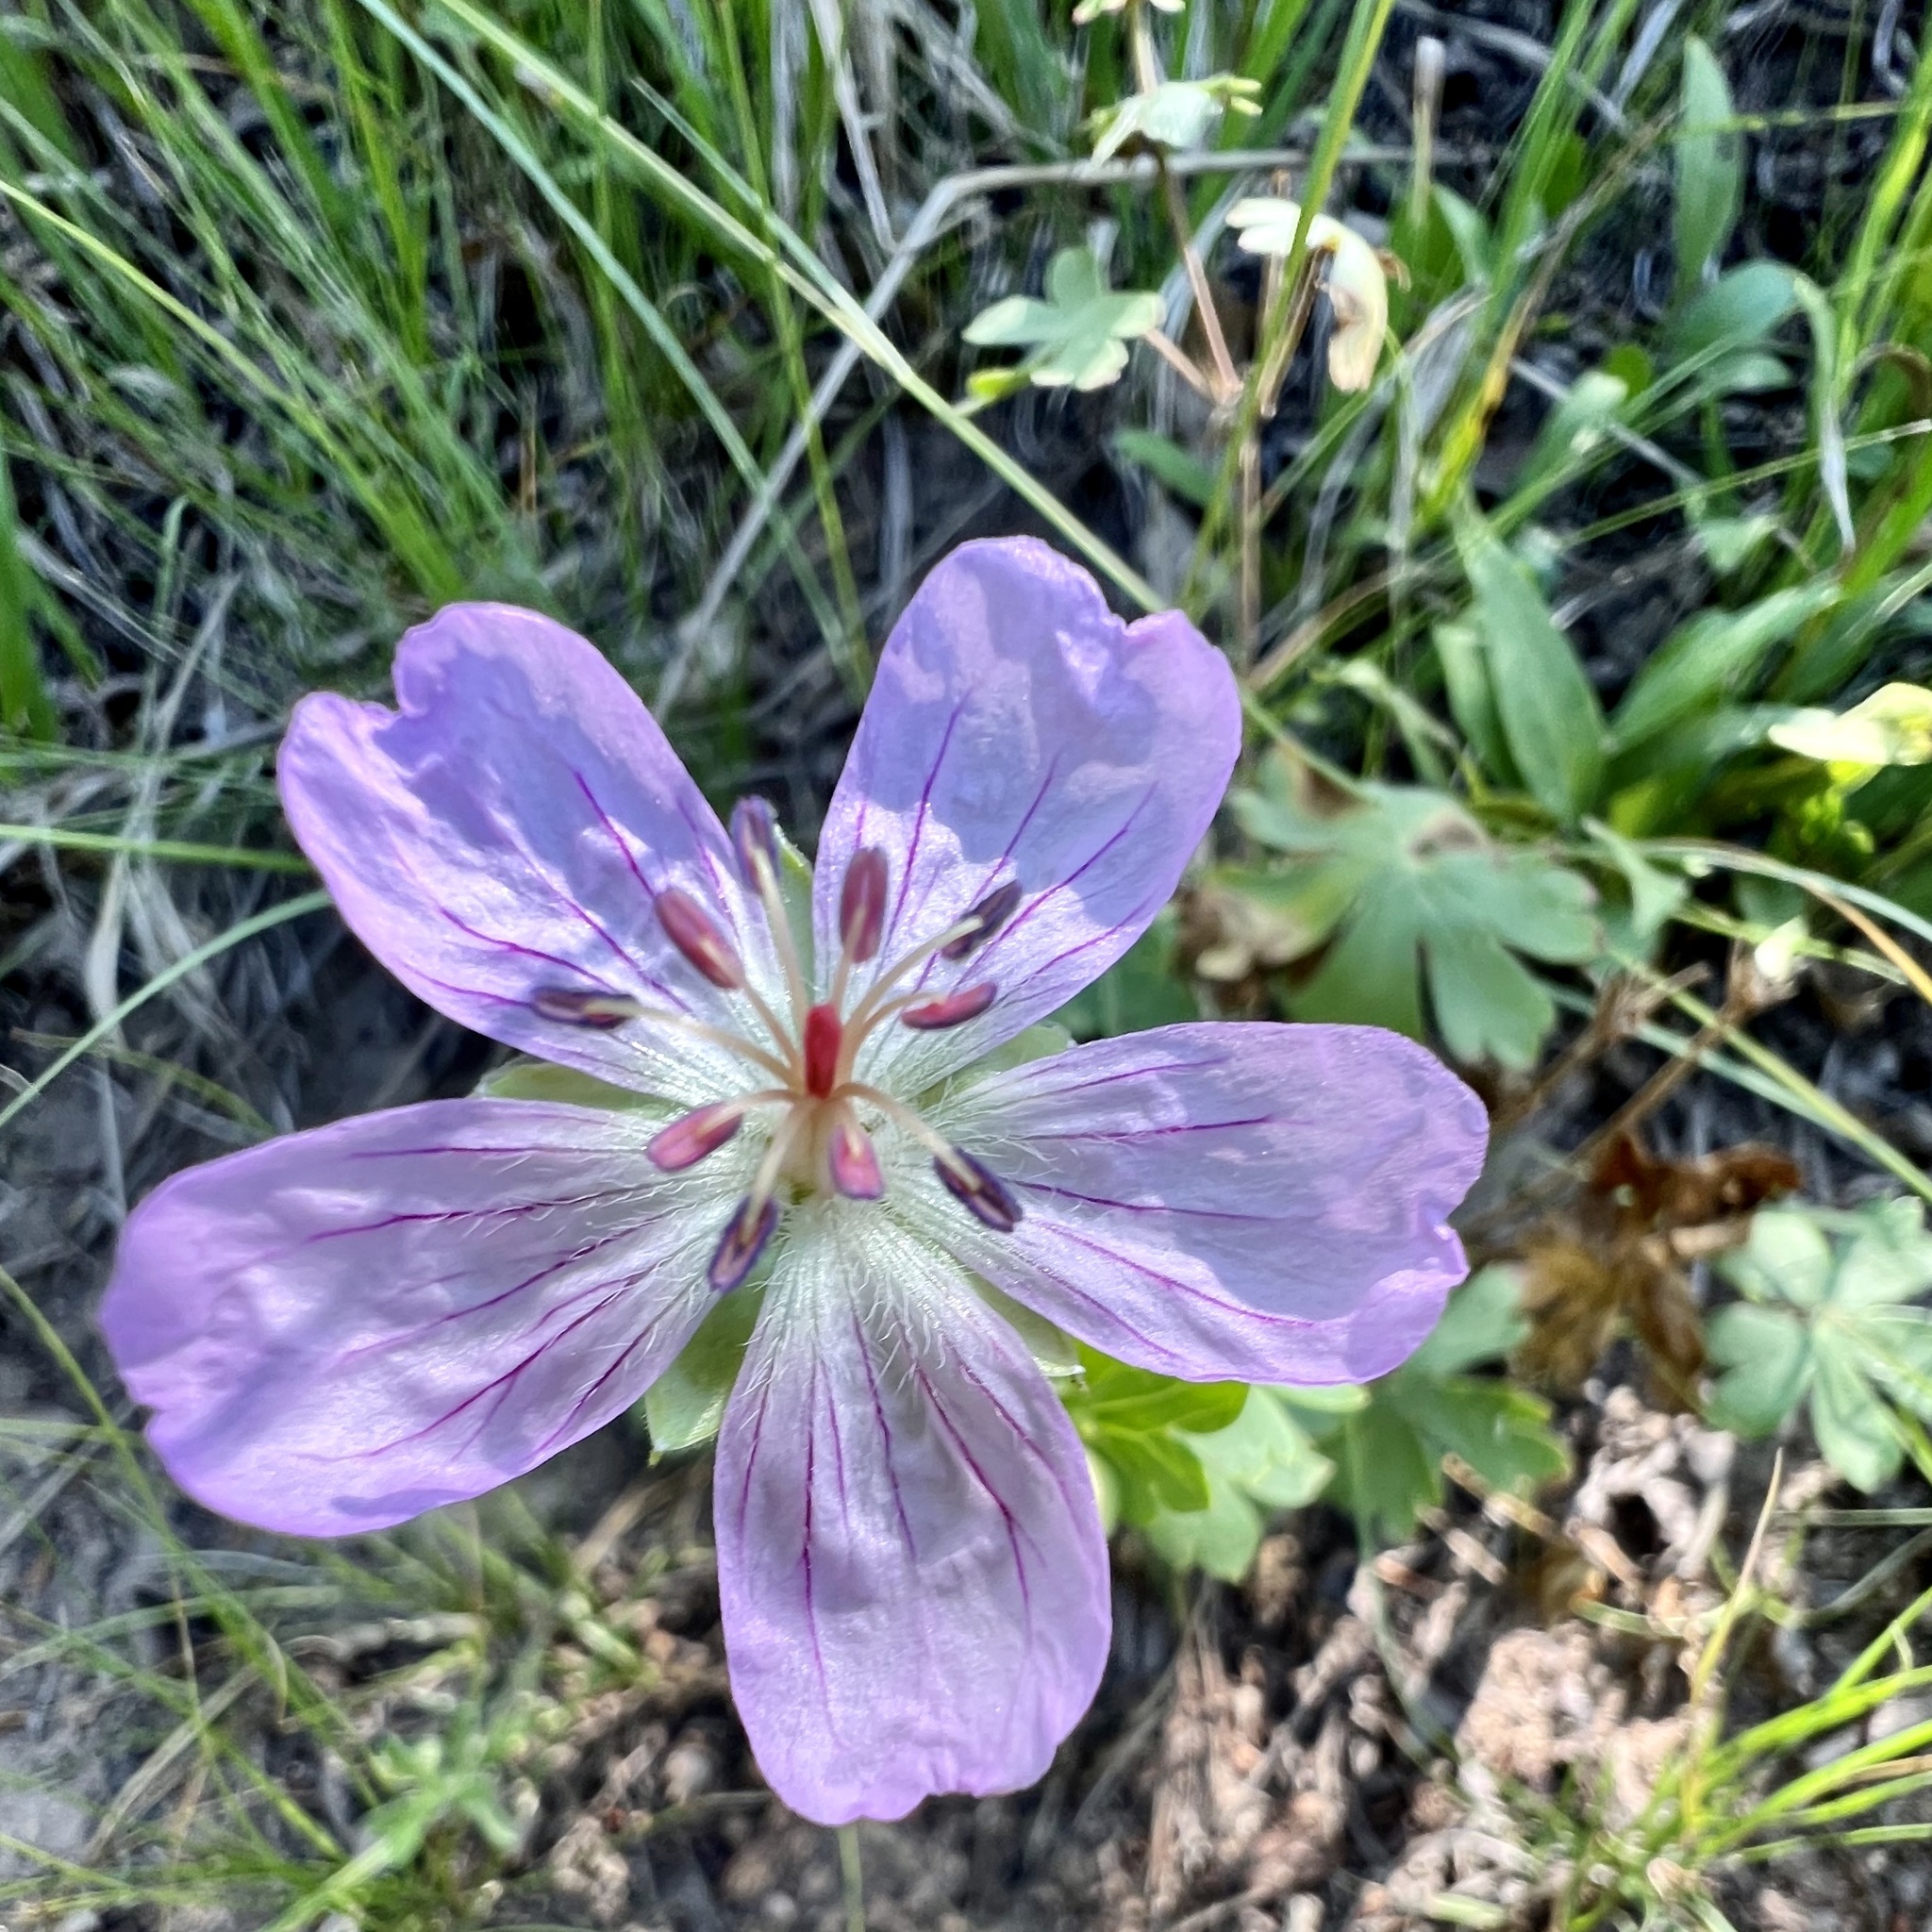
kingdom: Plantae
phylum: Tracheophyta
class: Magnoliopsida
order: Geraniales
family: Geraniaceae
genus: Geranium
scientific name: Geranium caespitosum
